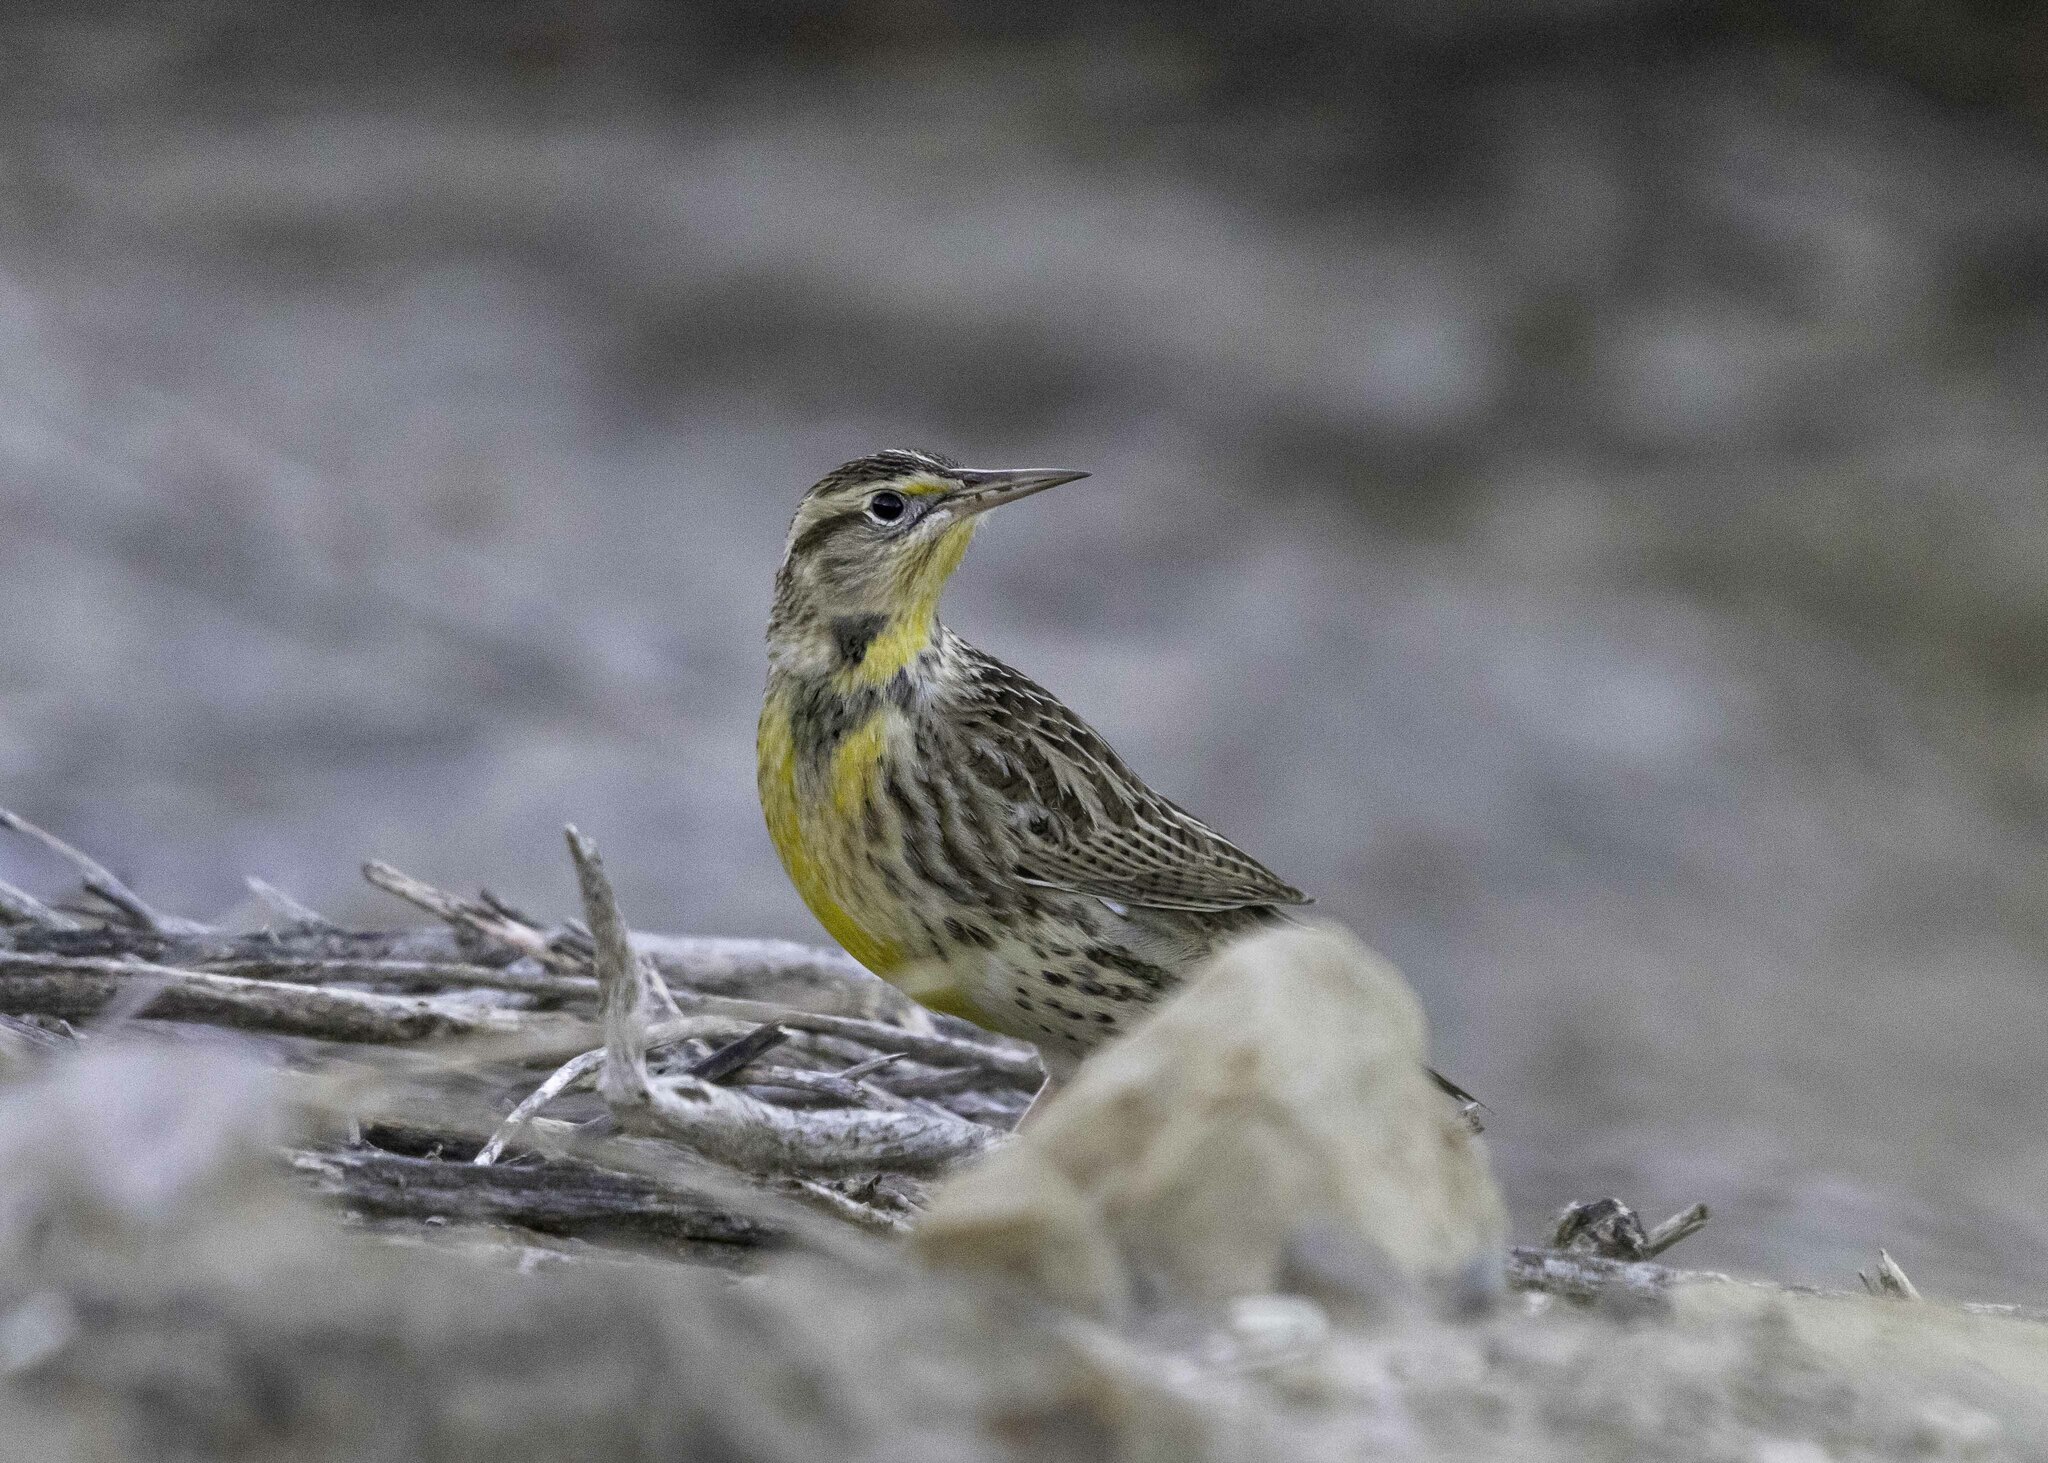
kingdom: Animalia
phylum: Chordata
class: Aves
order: Passeriformes
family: Icteridae
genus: Sturnella
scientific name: Sturnella neglecta
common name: Western meadowlark
